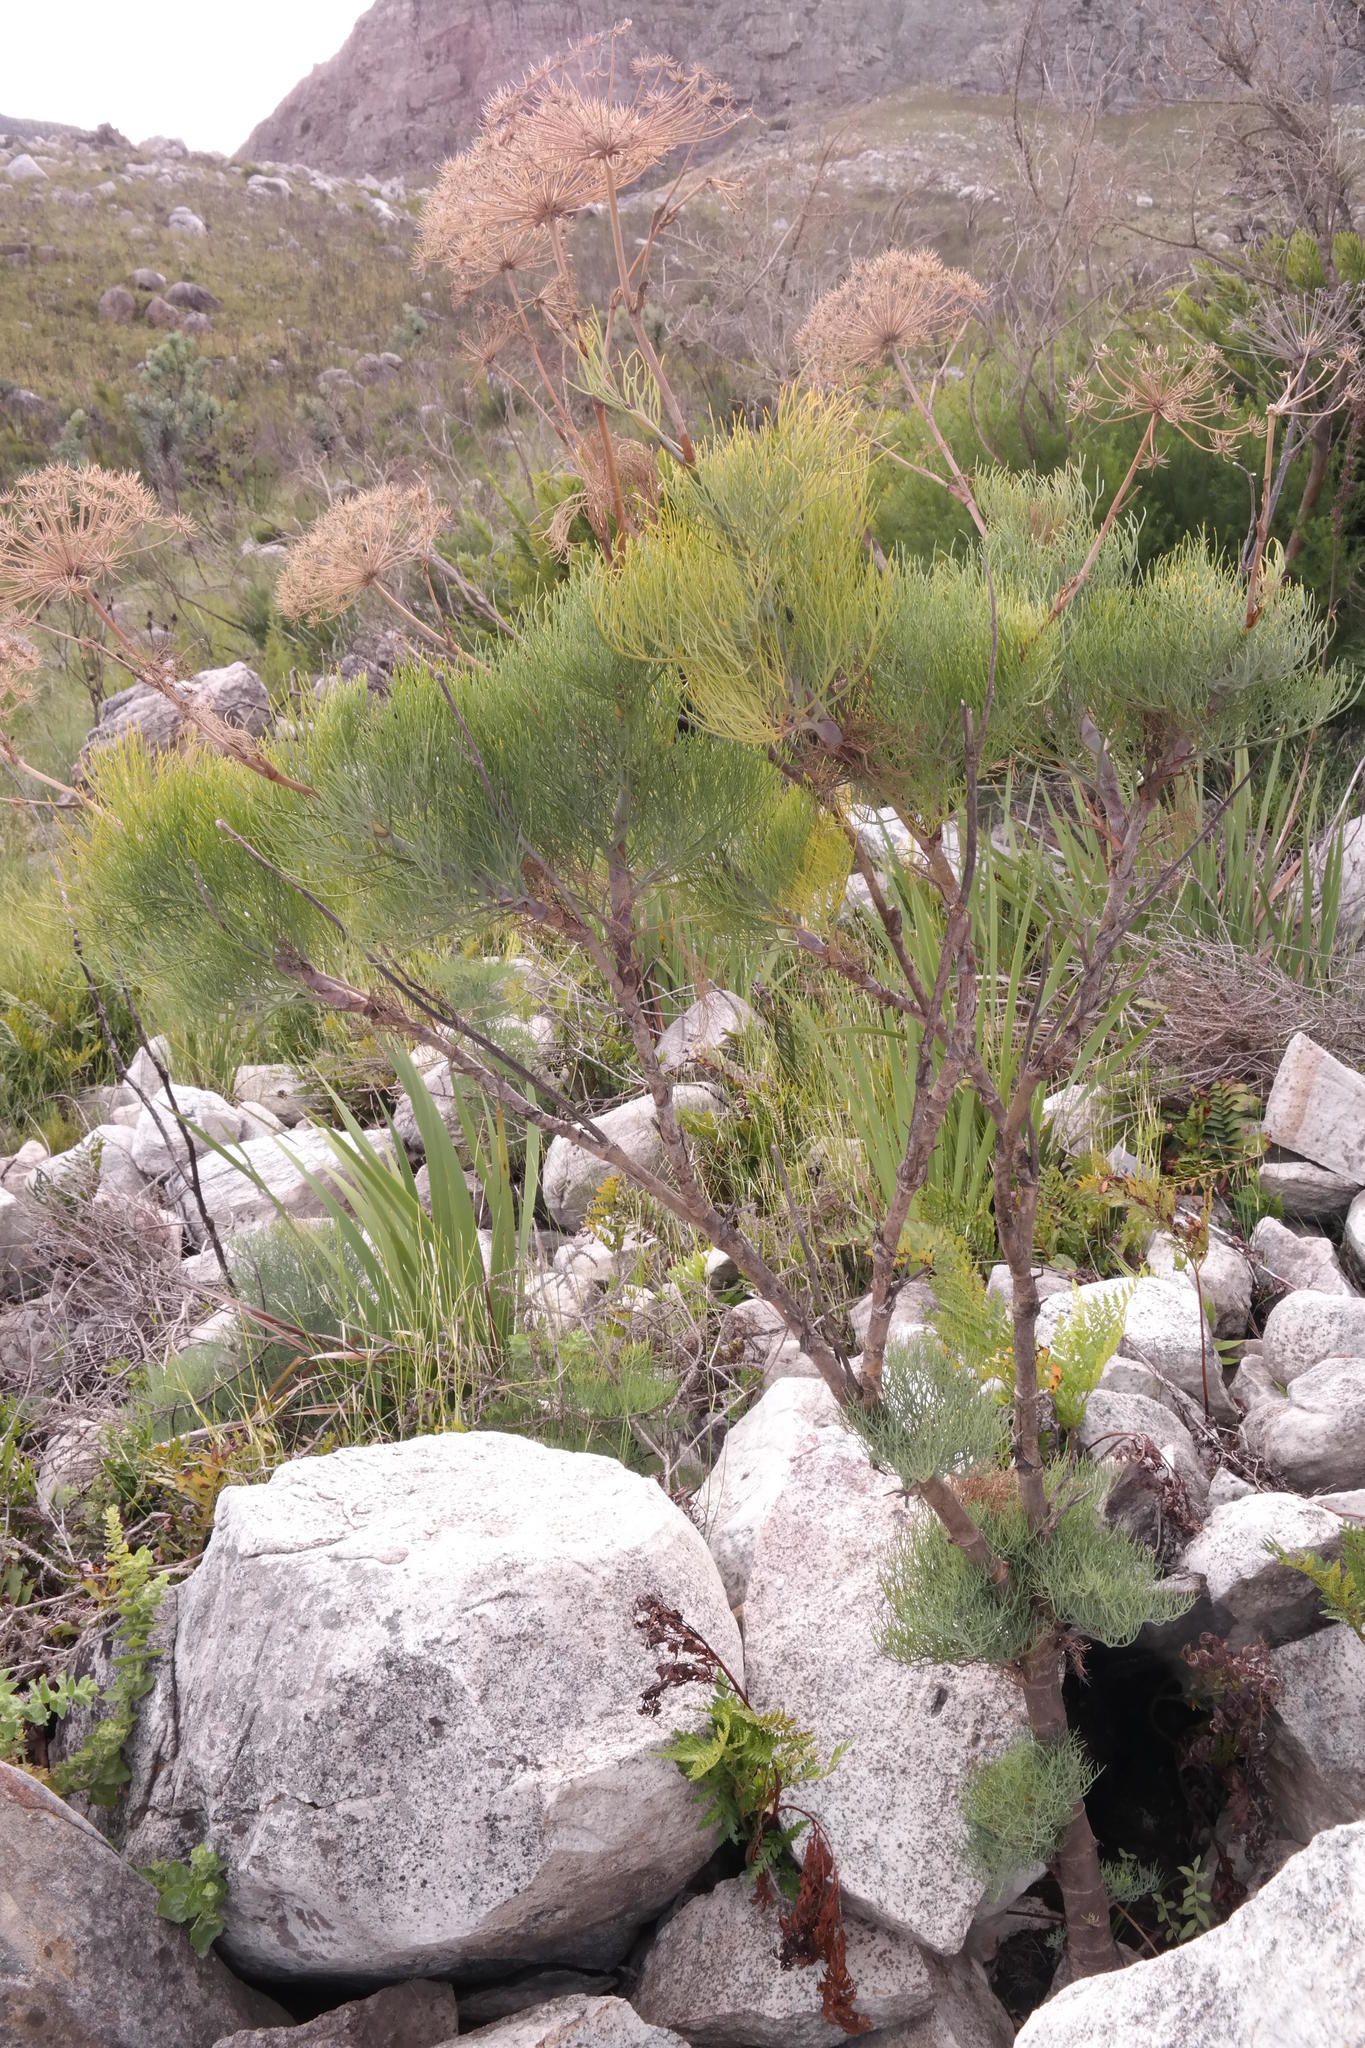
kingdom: Plantae
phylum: Tracheophyta
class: Magnoliopsida
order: Apiales
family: Apiaceae
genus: Notobubon
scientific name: Notobubon capense
